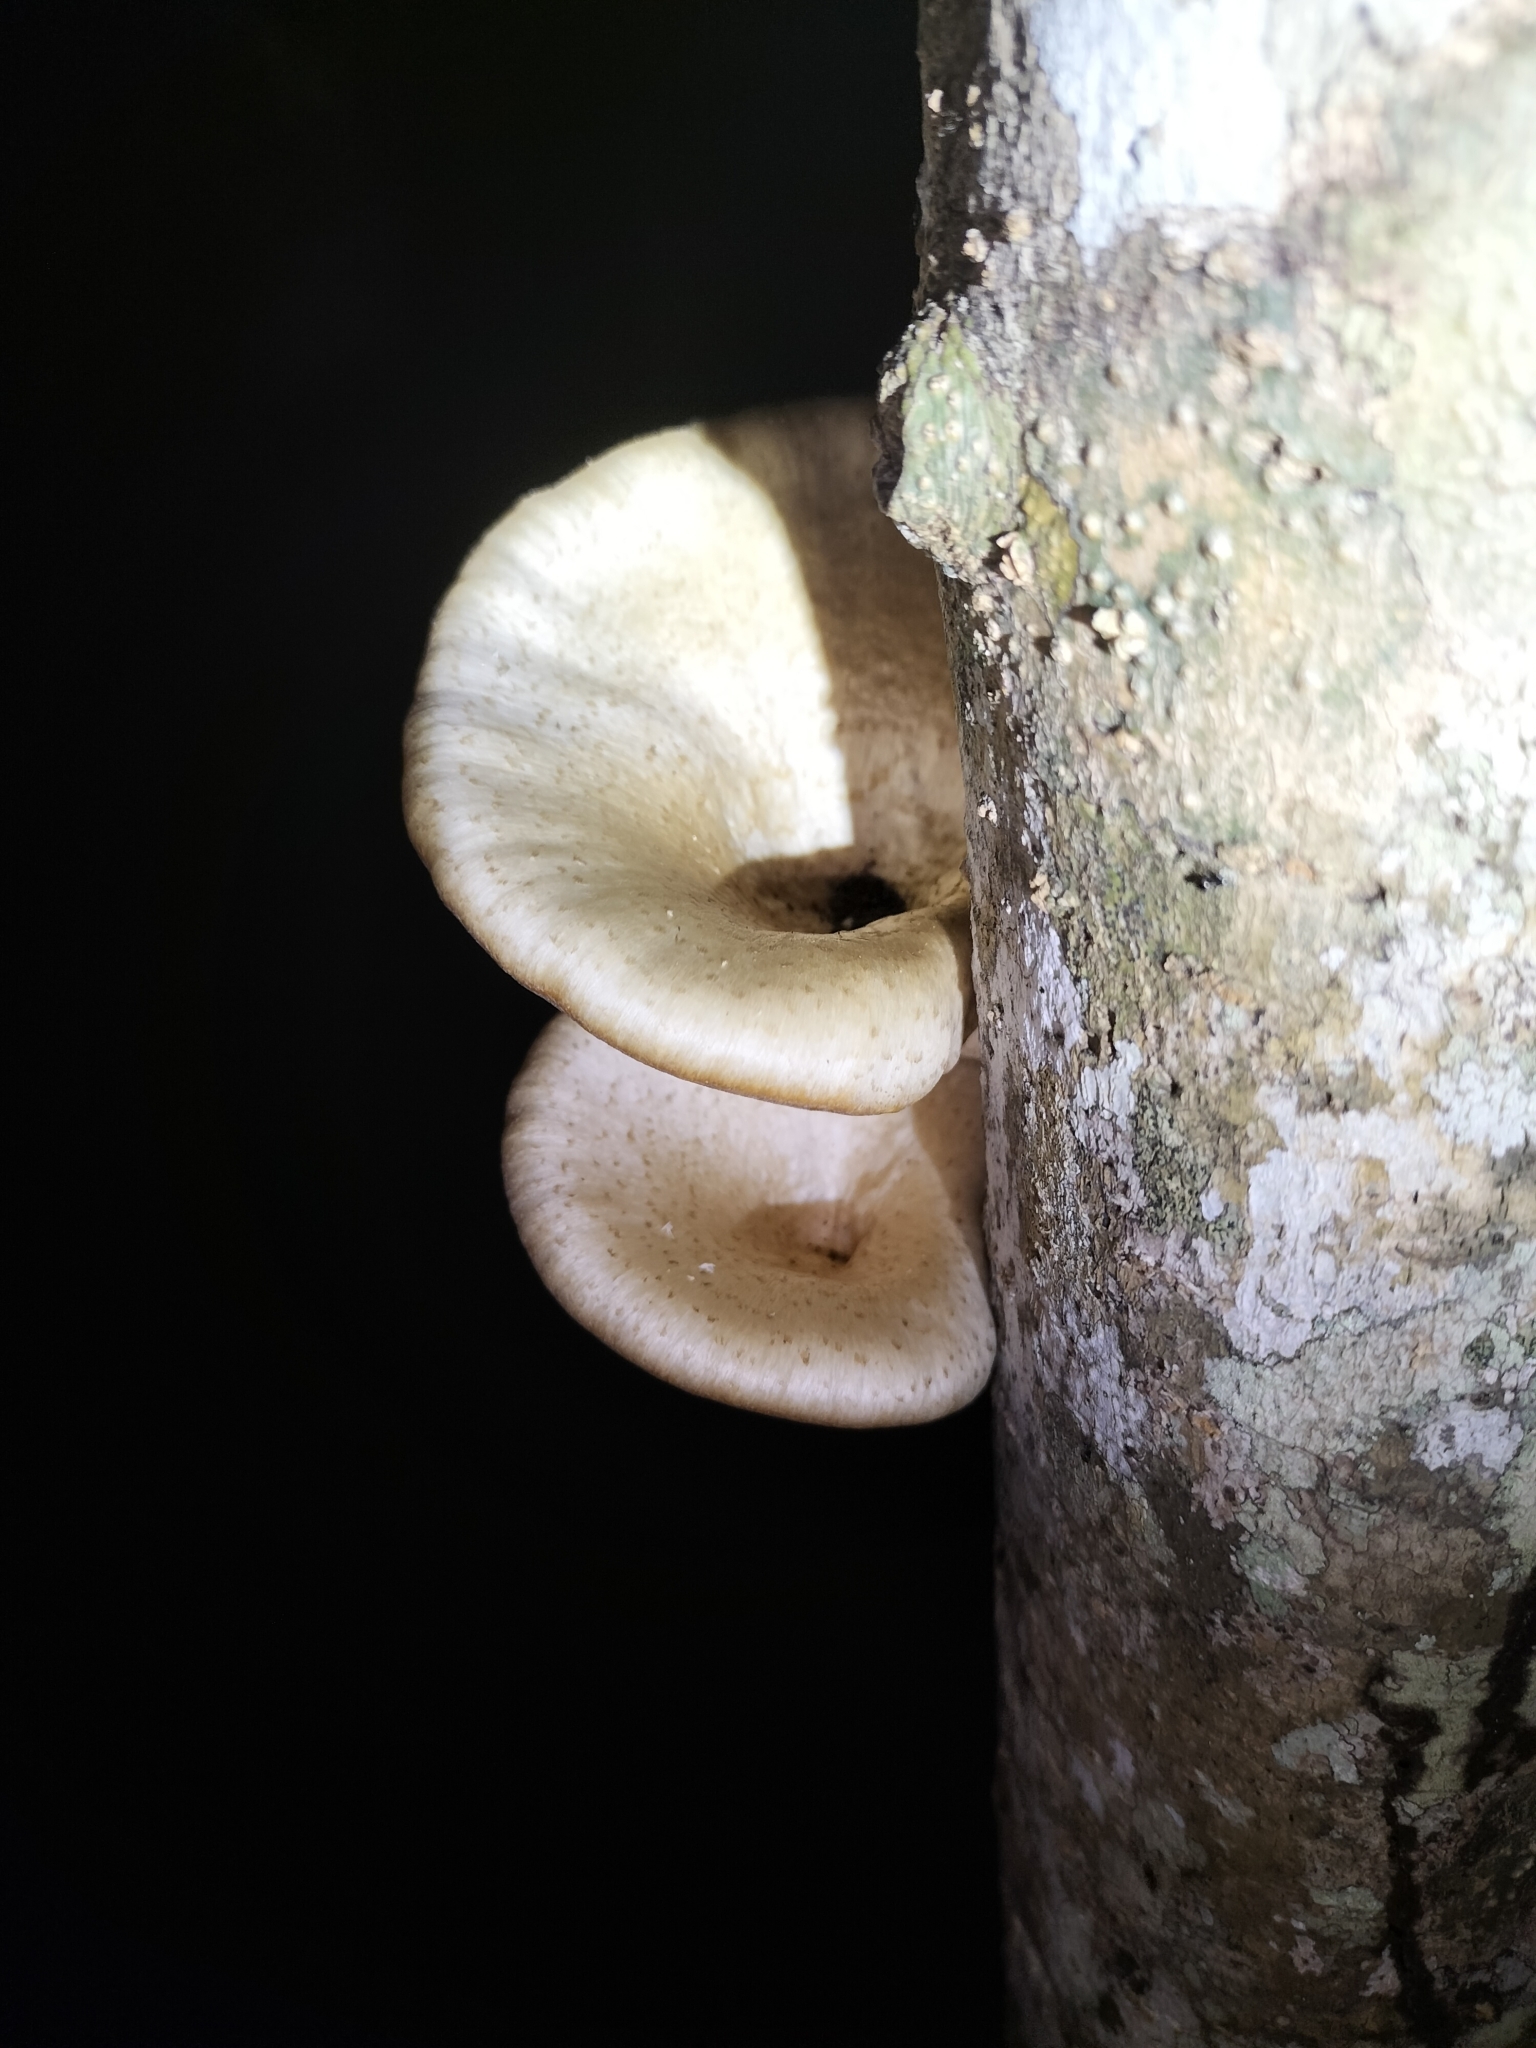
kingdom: Fungi
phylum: Basidiomycota
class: Agaricomycetes
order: Polyporales
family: Polyporaceae
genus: Lentinus
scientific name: Lentinus sajor-caju
